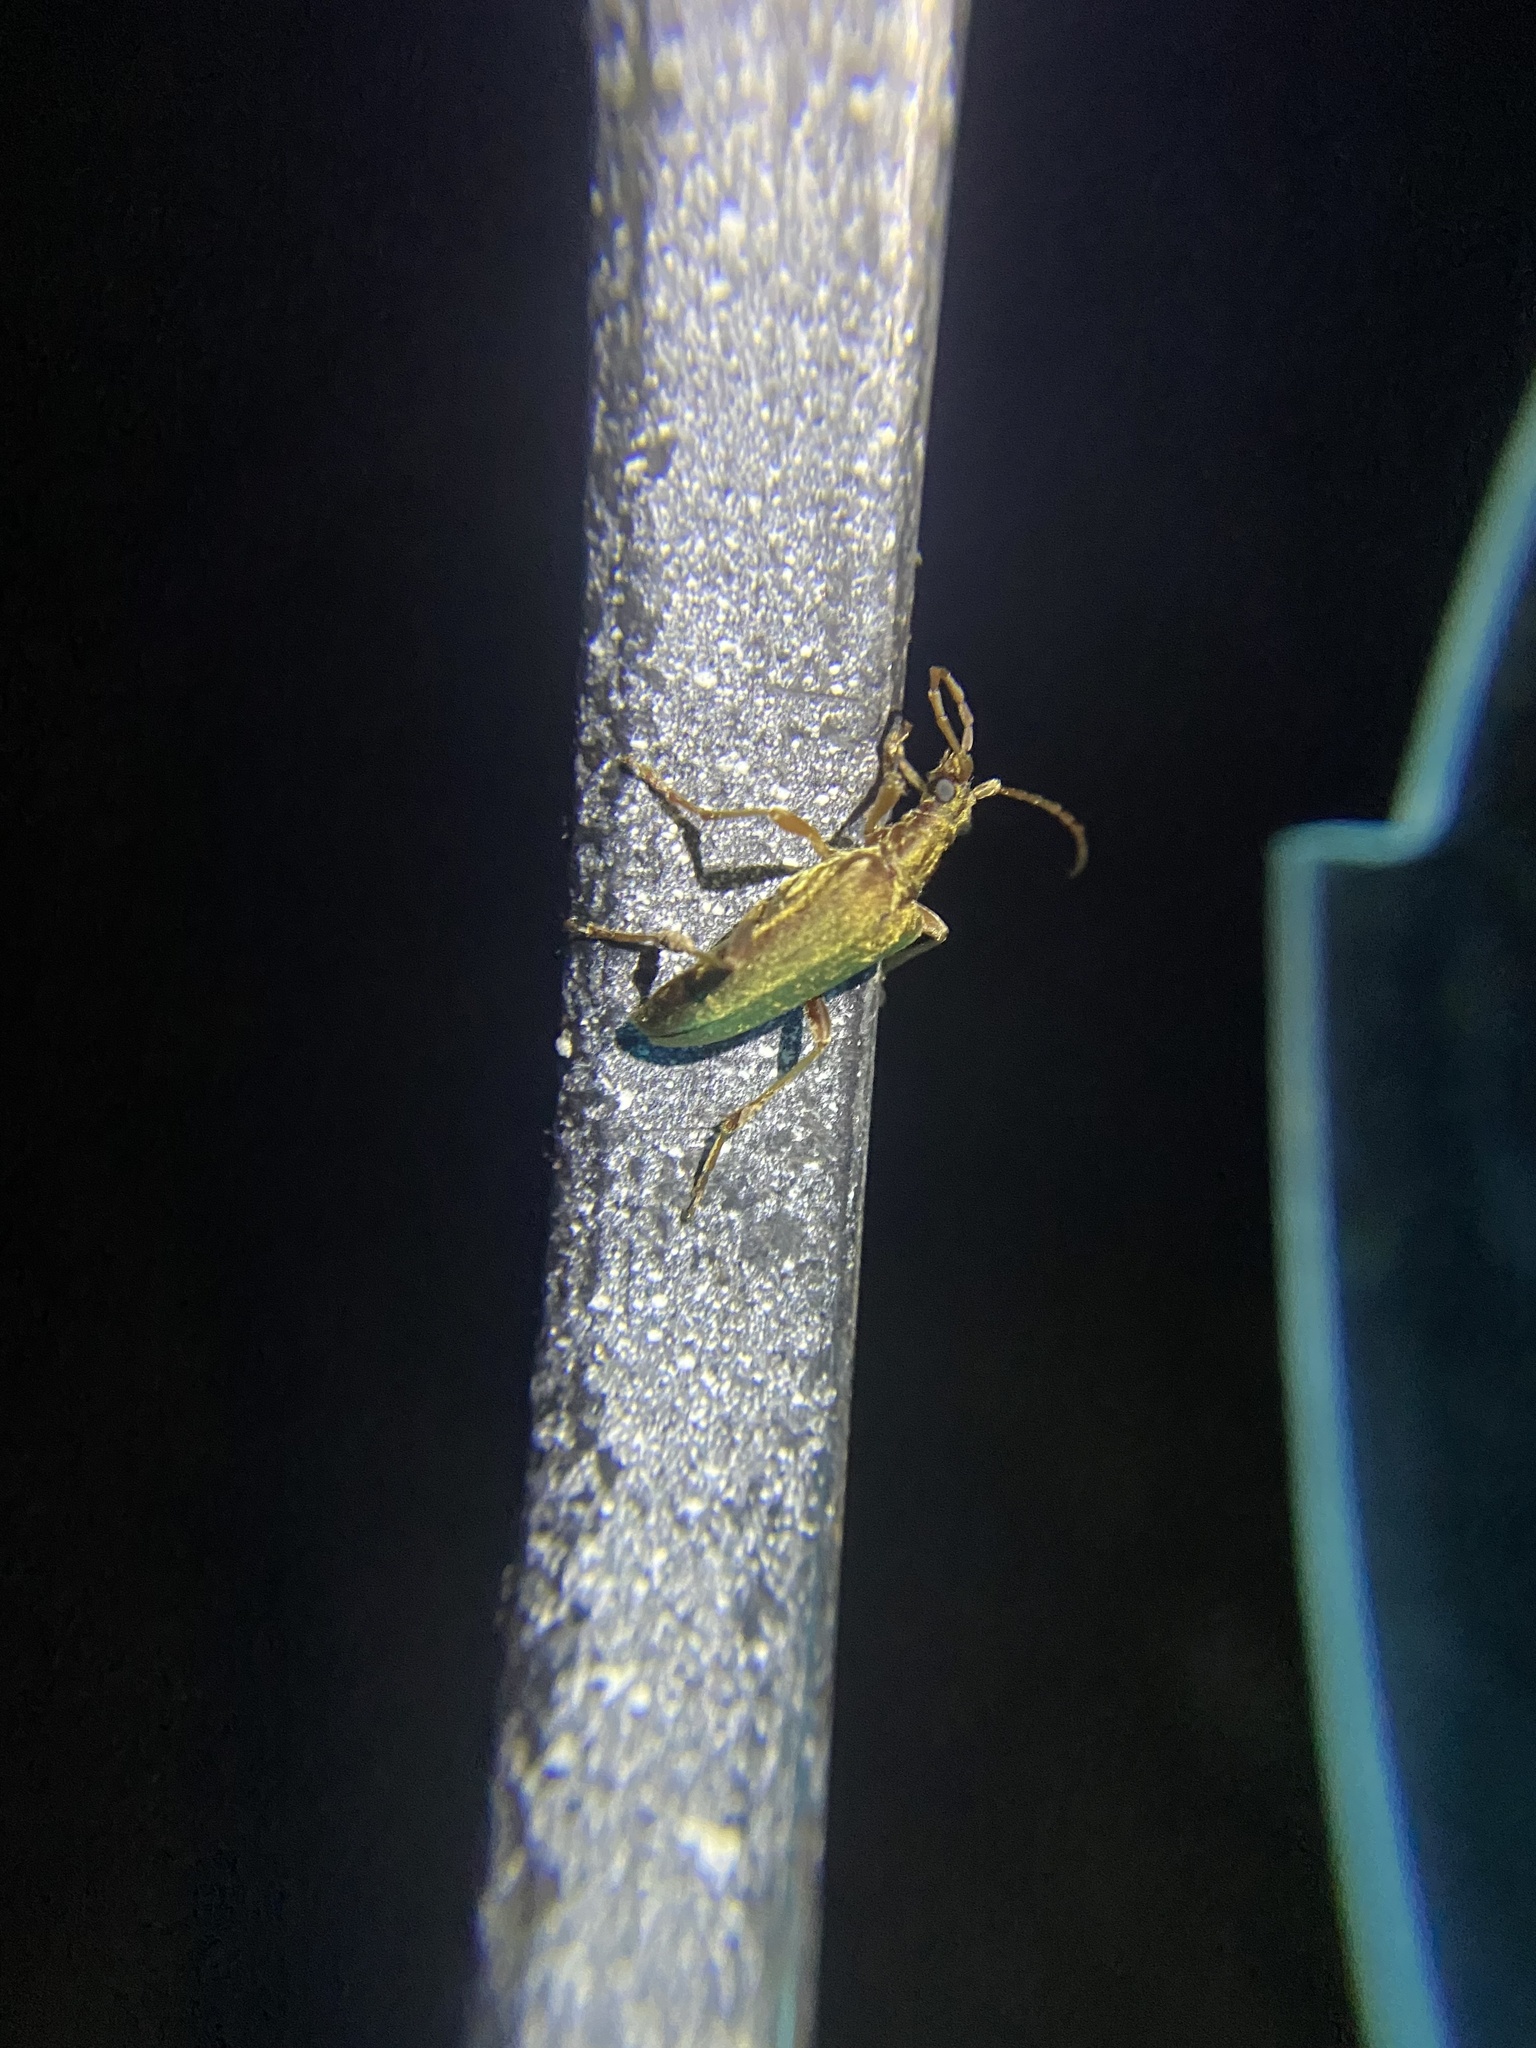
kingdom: Animalia
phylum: Arthropoda
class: Insecta
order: Coleoptera
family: Cerambycidae
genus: Stenocorus
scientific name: Stenocorus cinnamopterus
